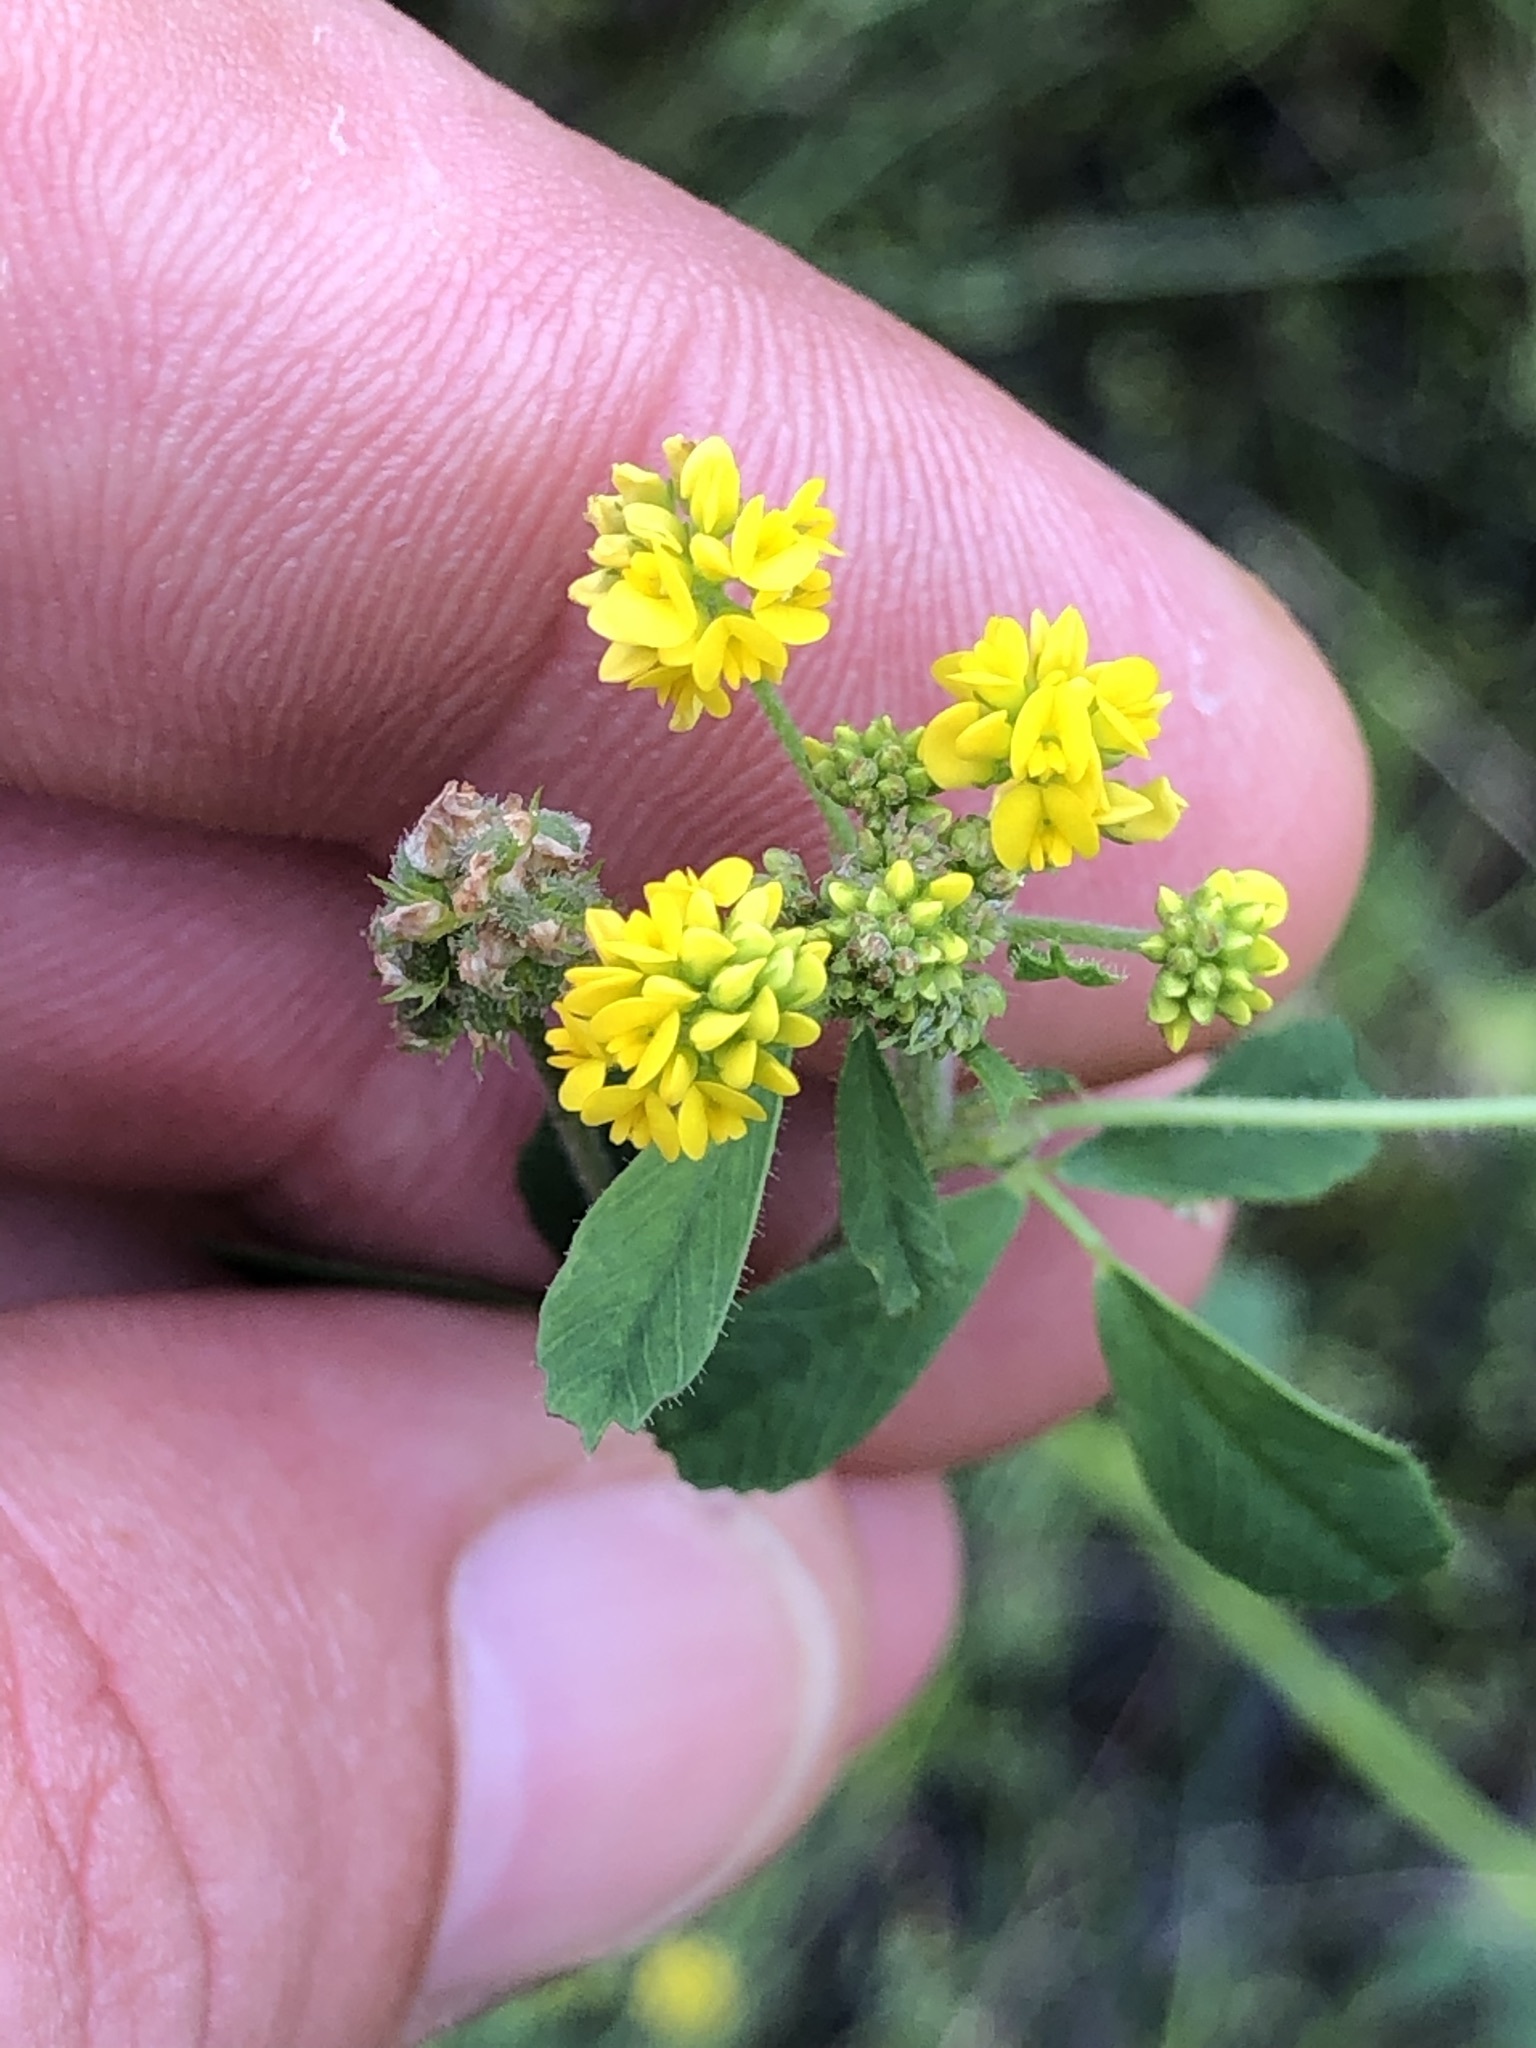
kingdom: Plantae
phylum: Tracheophyta
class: Magnoliopsida
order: Fabales
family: Fabaceae
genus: Medicago
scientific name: Medicago lupulina
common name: Black medick
